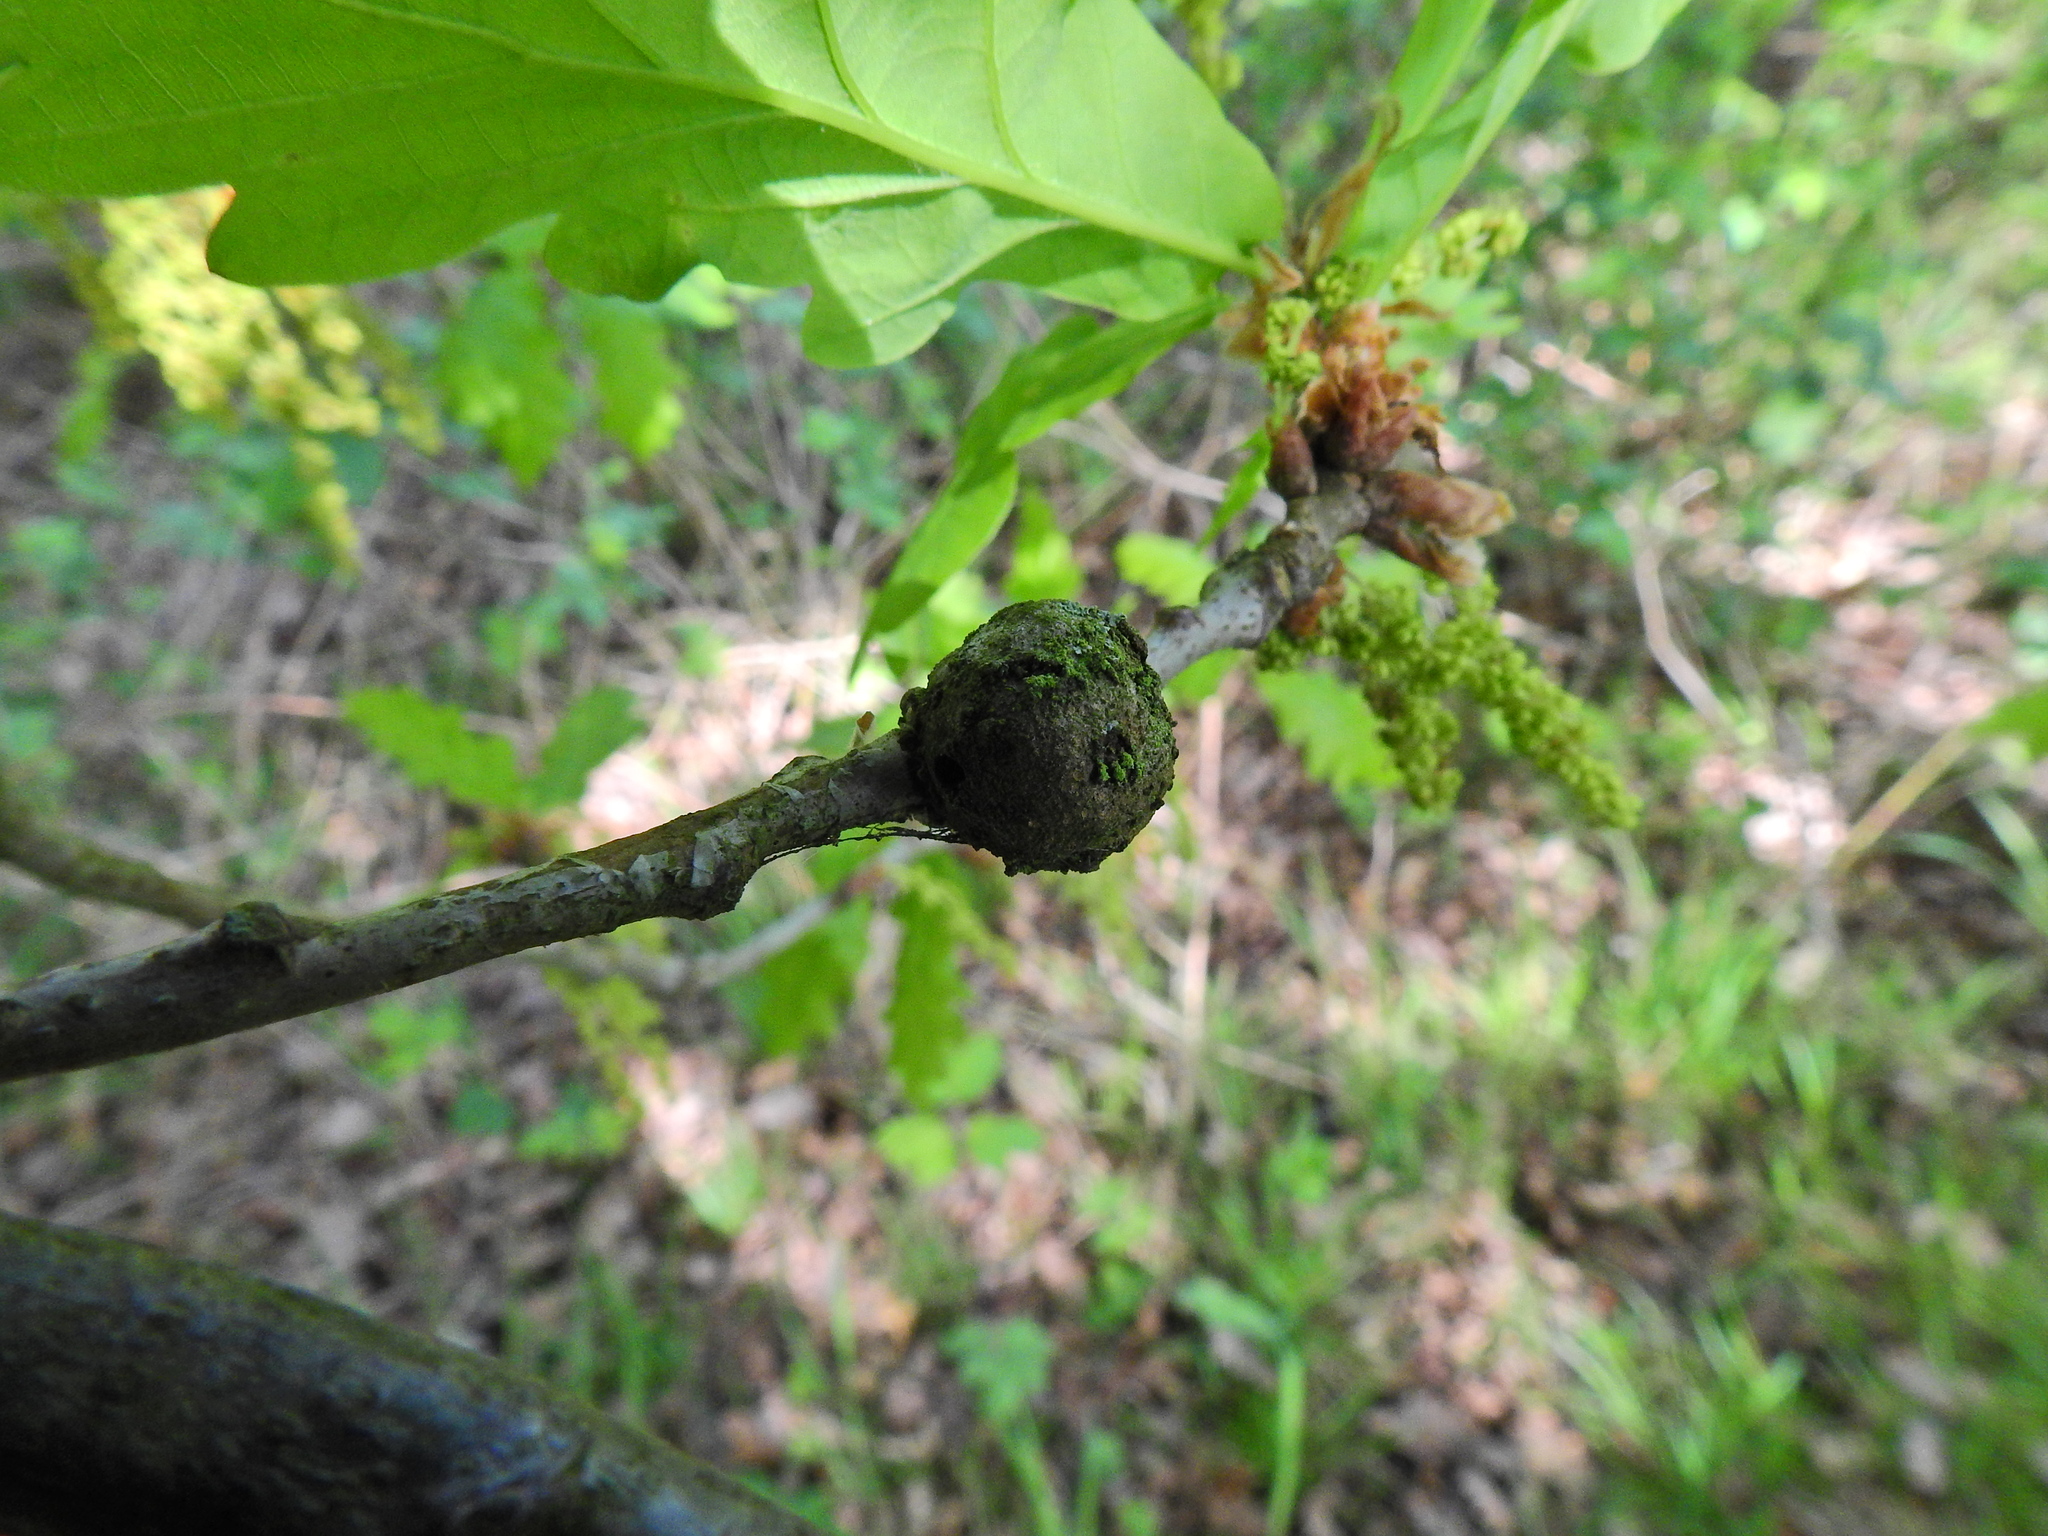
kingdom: Animalia
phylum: Arthropoda
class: Insecta
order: Hymenoptera
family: Cynipidae
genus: Andricus
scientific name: Andricus lignicolus
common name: Cola-nut gall
